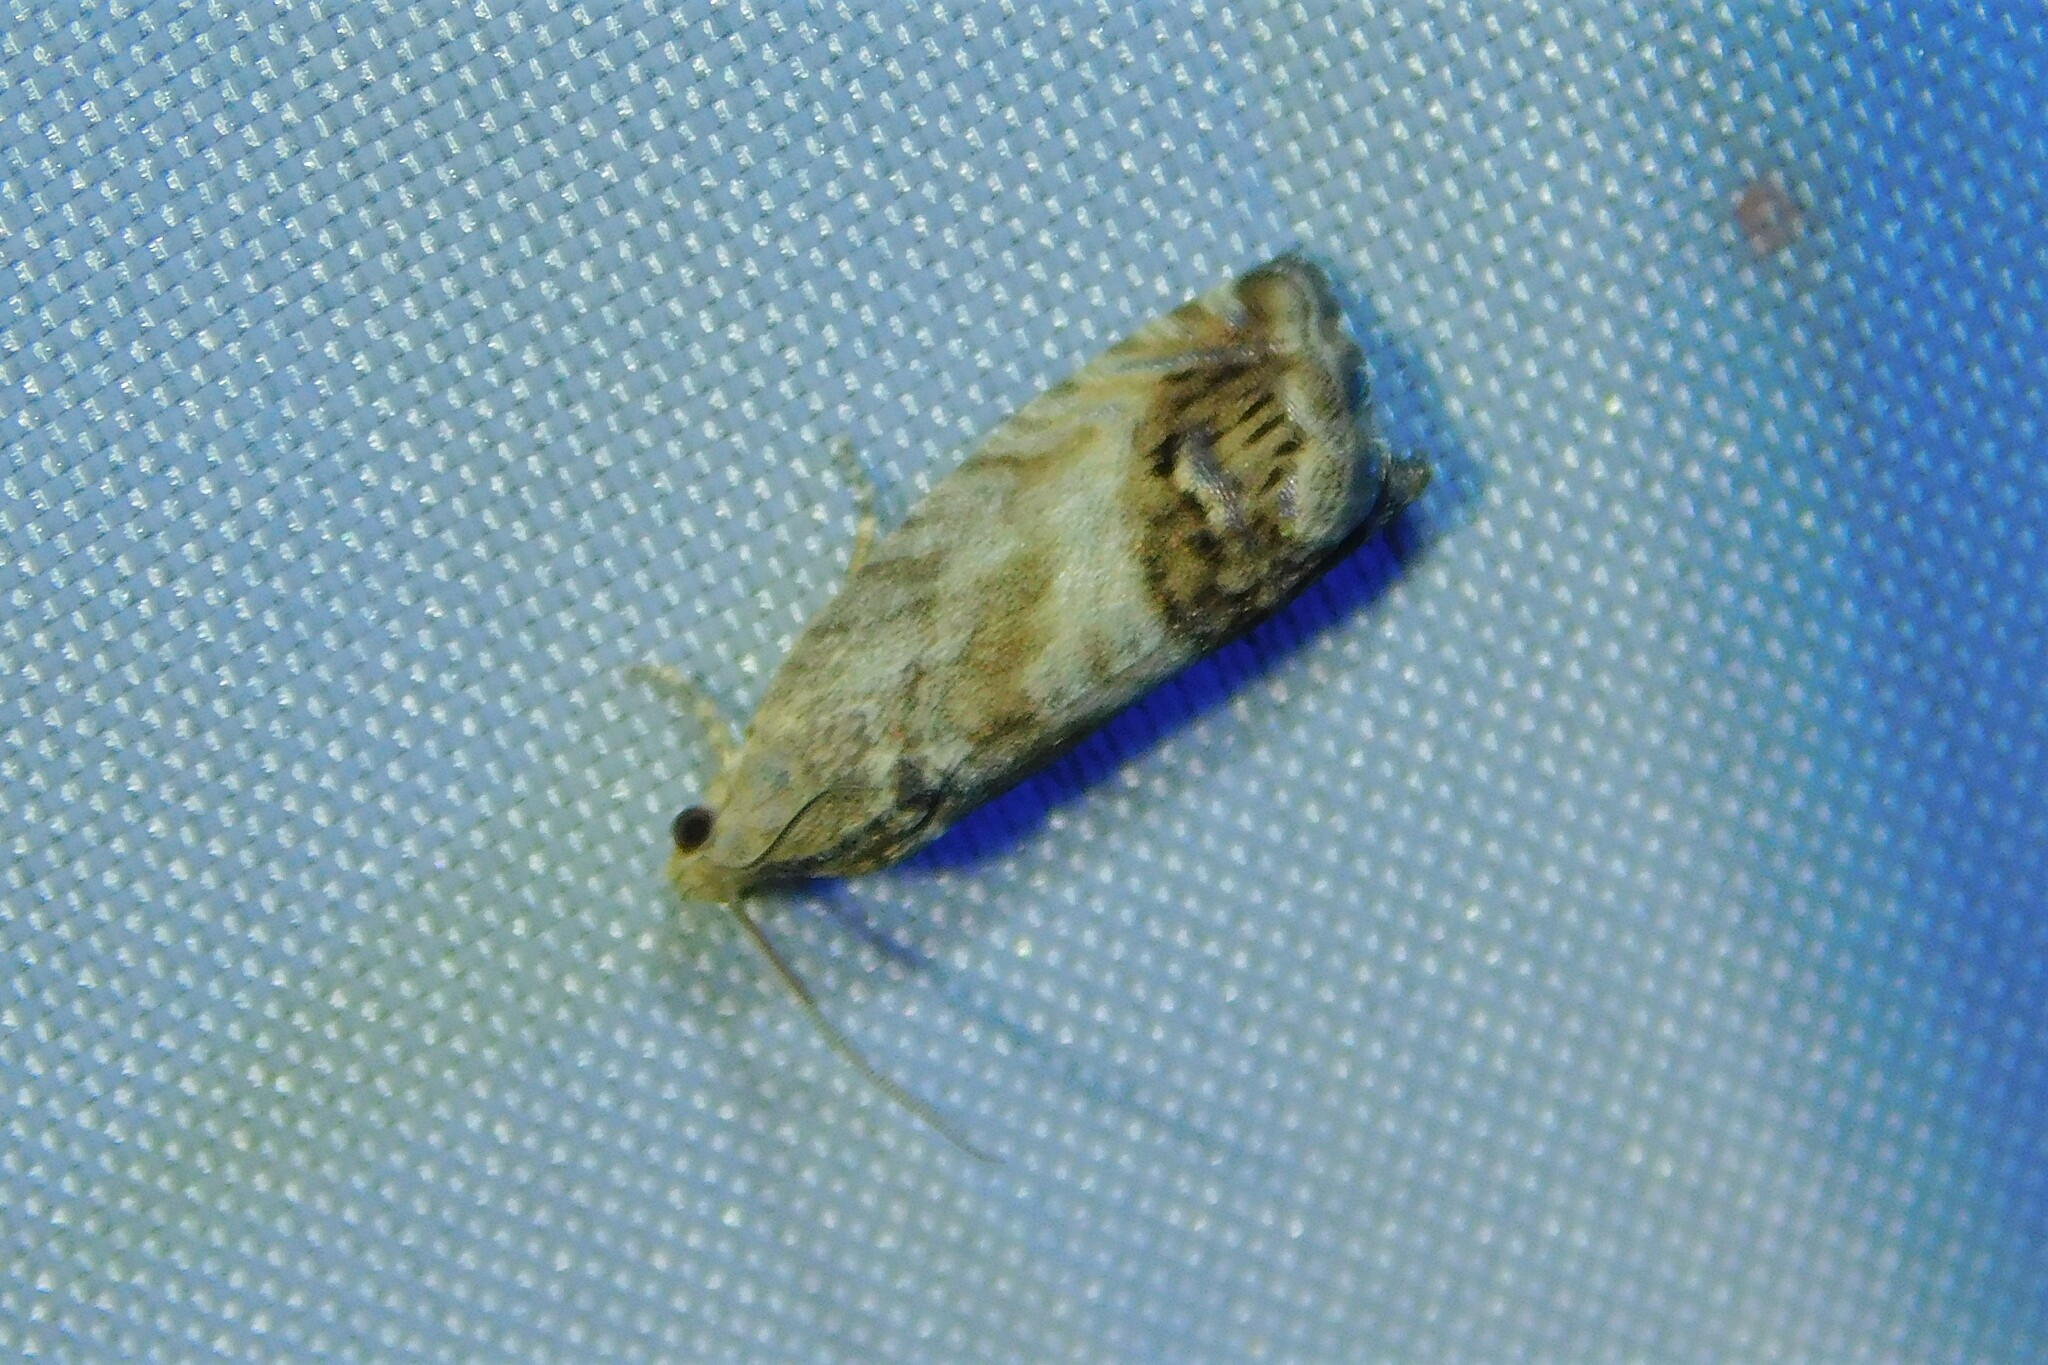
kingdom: Animalia
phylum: Arthropoda
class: Insecta
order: Lepidoptera
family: Tortricidae
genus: Cydia
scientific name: Cydia splendana
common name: De: kastanienwickler, eichenwickler es: oruga de la castaña fr: carpocapse des châtaignes it: cidia o tortrice tardiva delle castagne pt: bichado das castanhas gb: acorn moth, chestnut fruit tortrix
